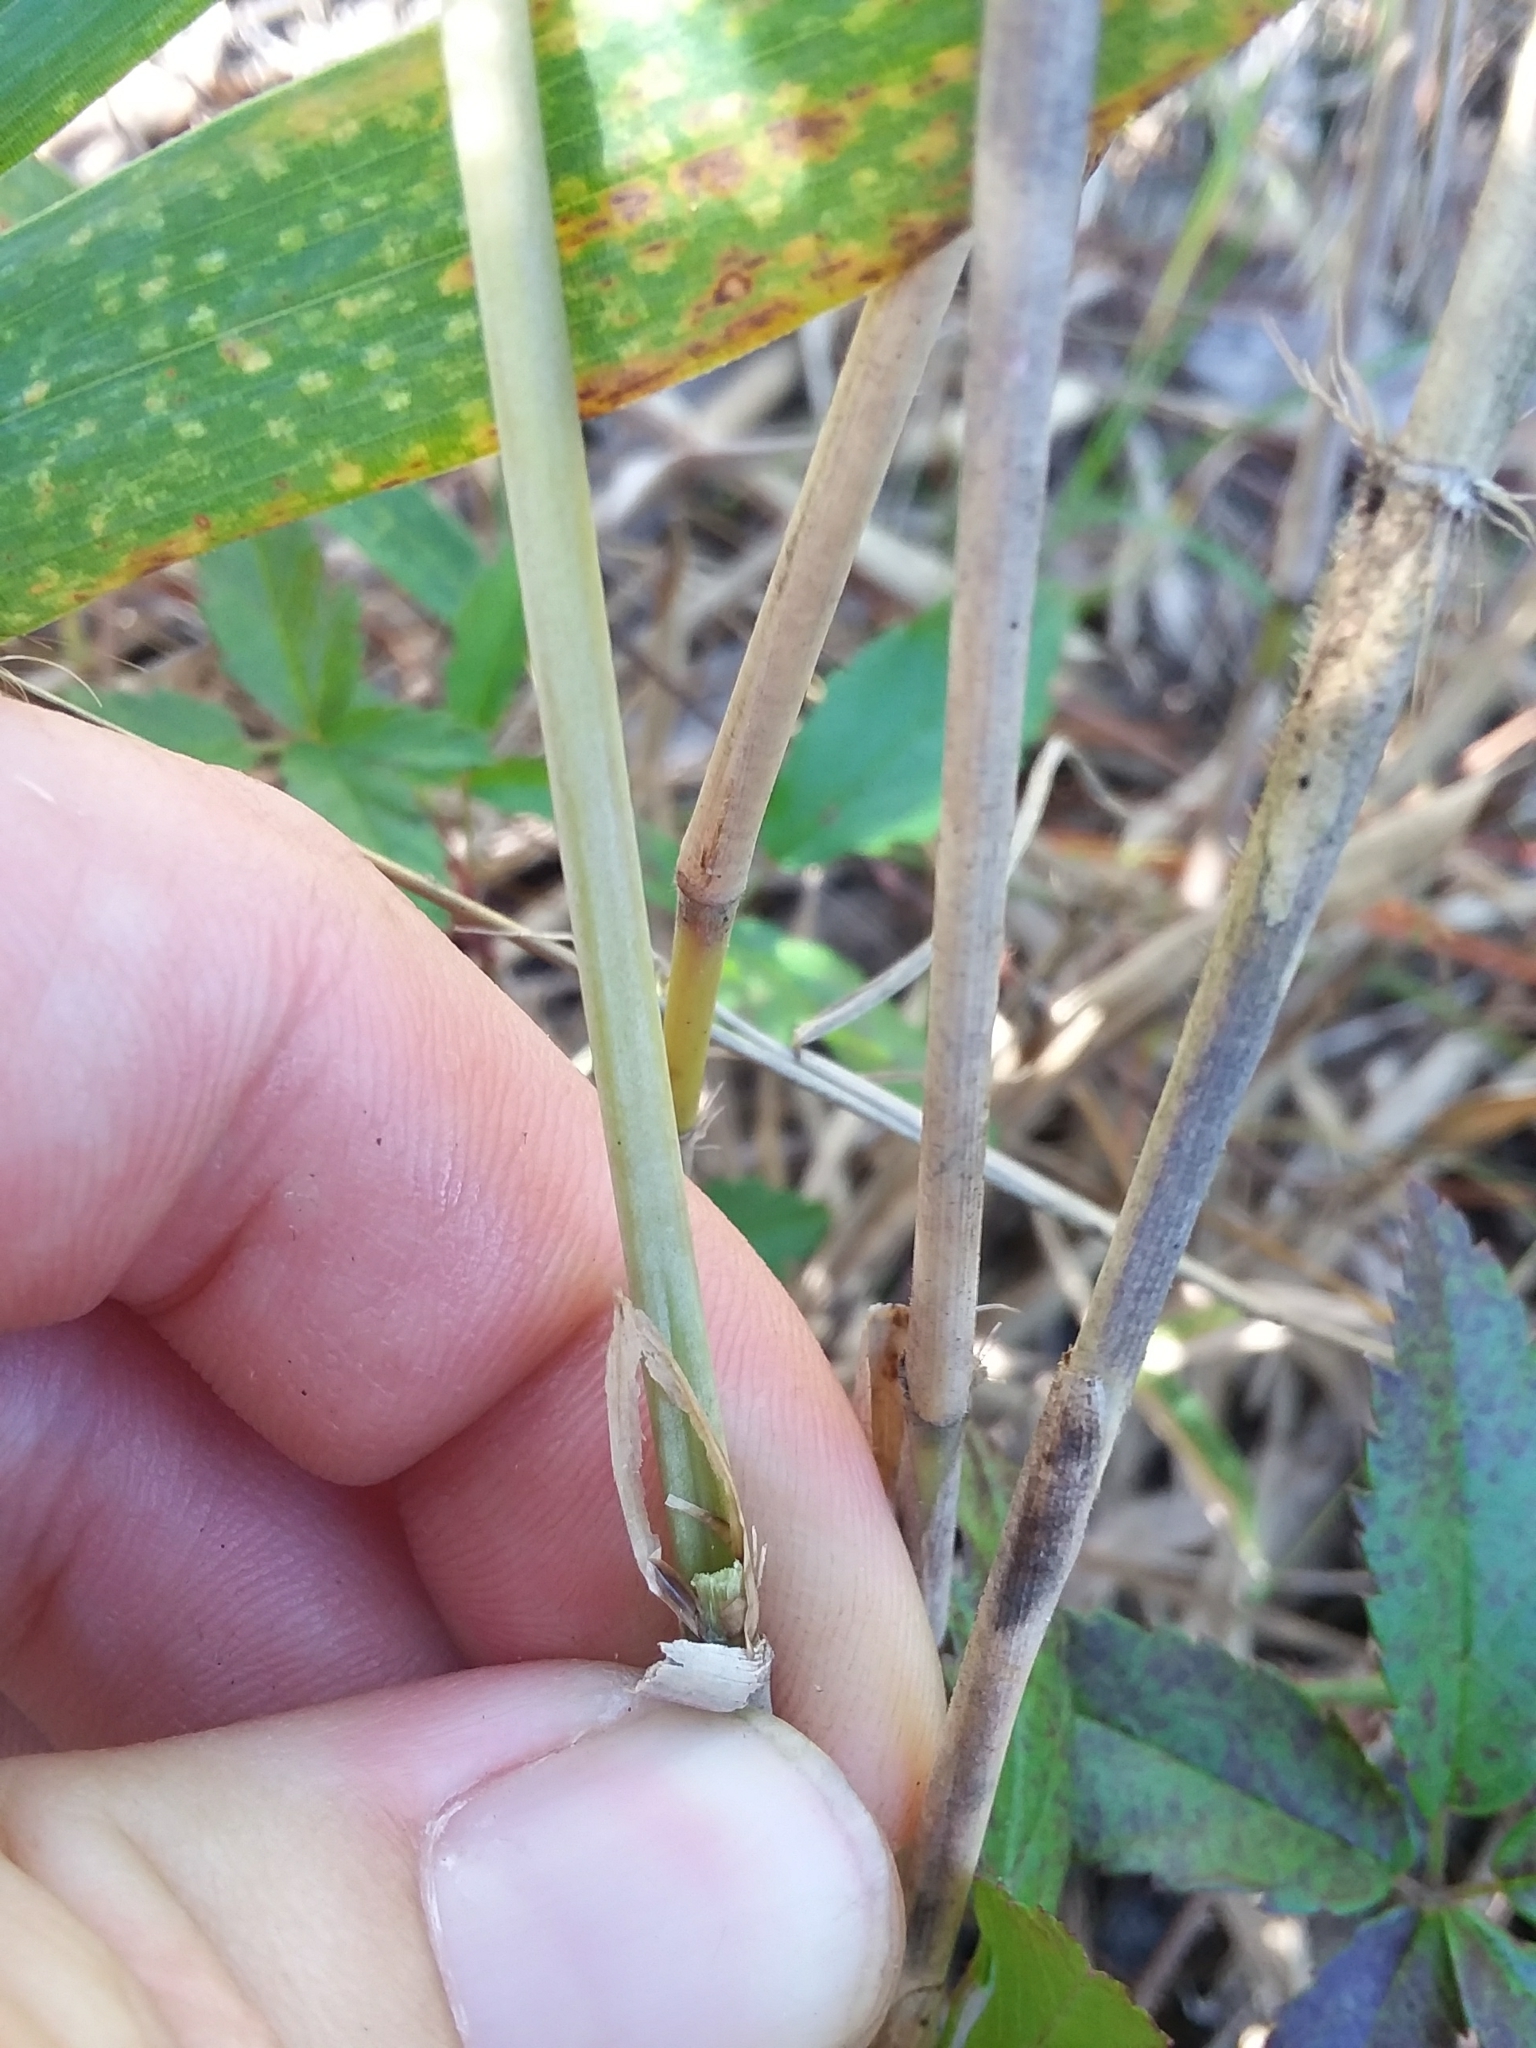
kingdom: Plantae
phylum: Tracheophyta
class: Liliopsida
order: Poales
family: Poaceae
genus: Arundinaria
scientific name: Arundinaria tecta
